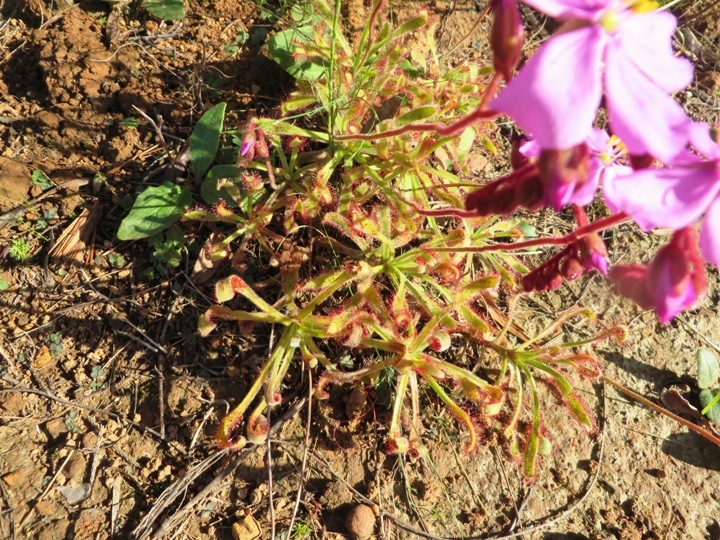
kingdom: Plantae
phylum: Tracheophyta
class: Magnoliopsida
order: Caryophyllales
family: Droseraceae
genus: Drosera
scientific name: Drosera hilaris
